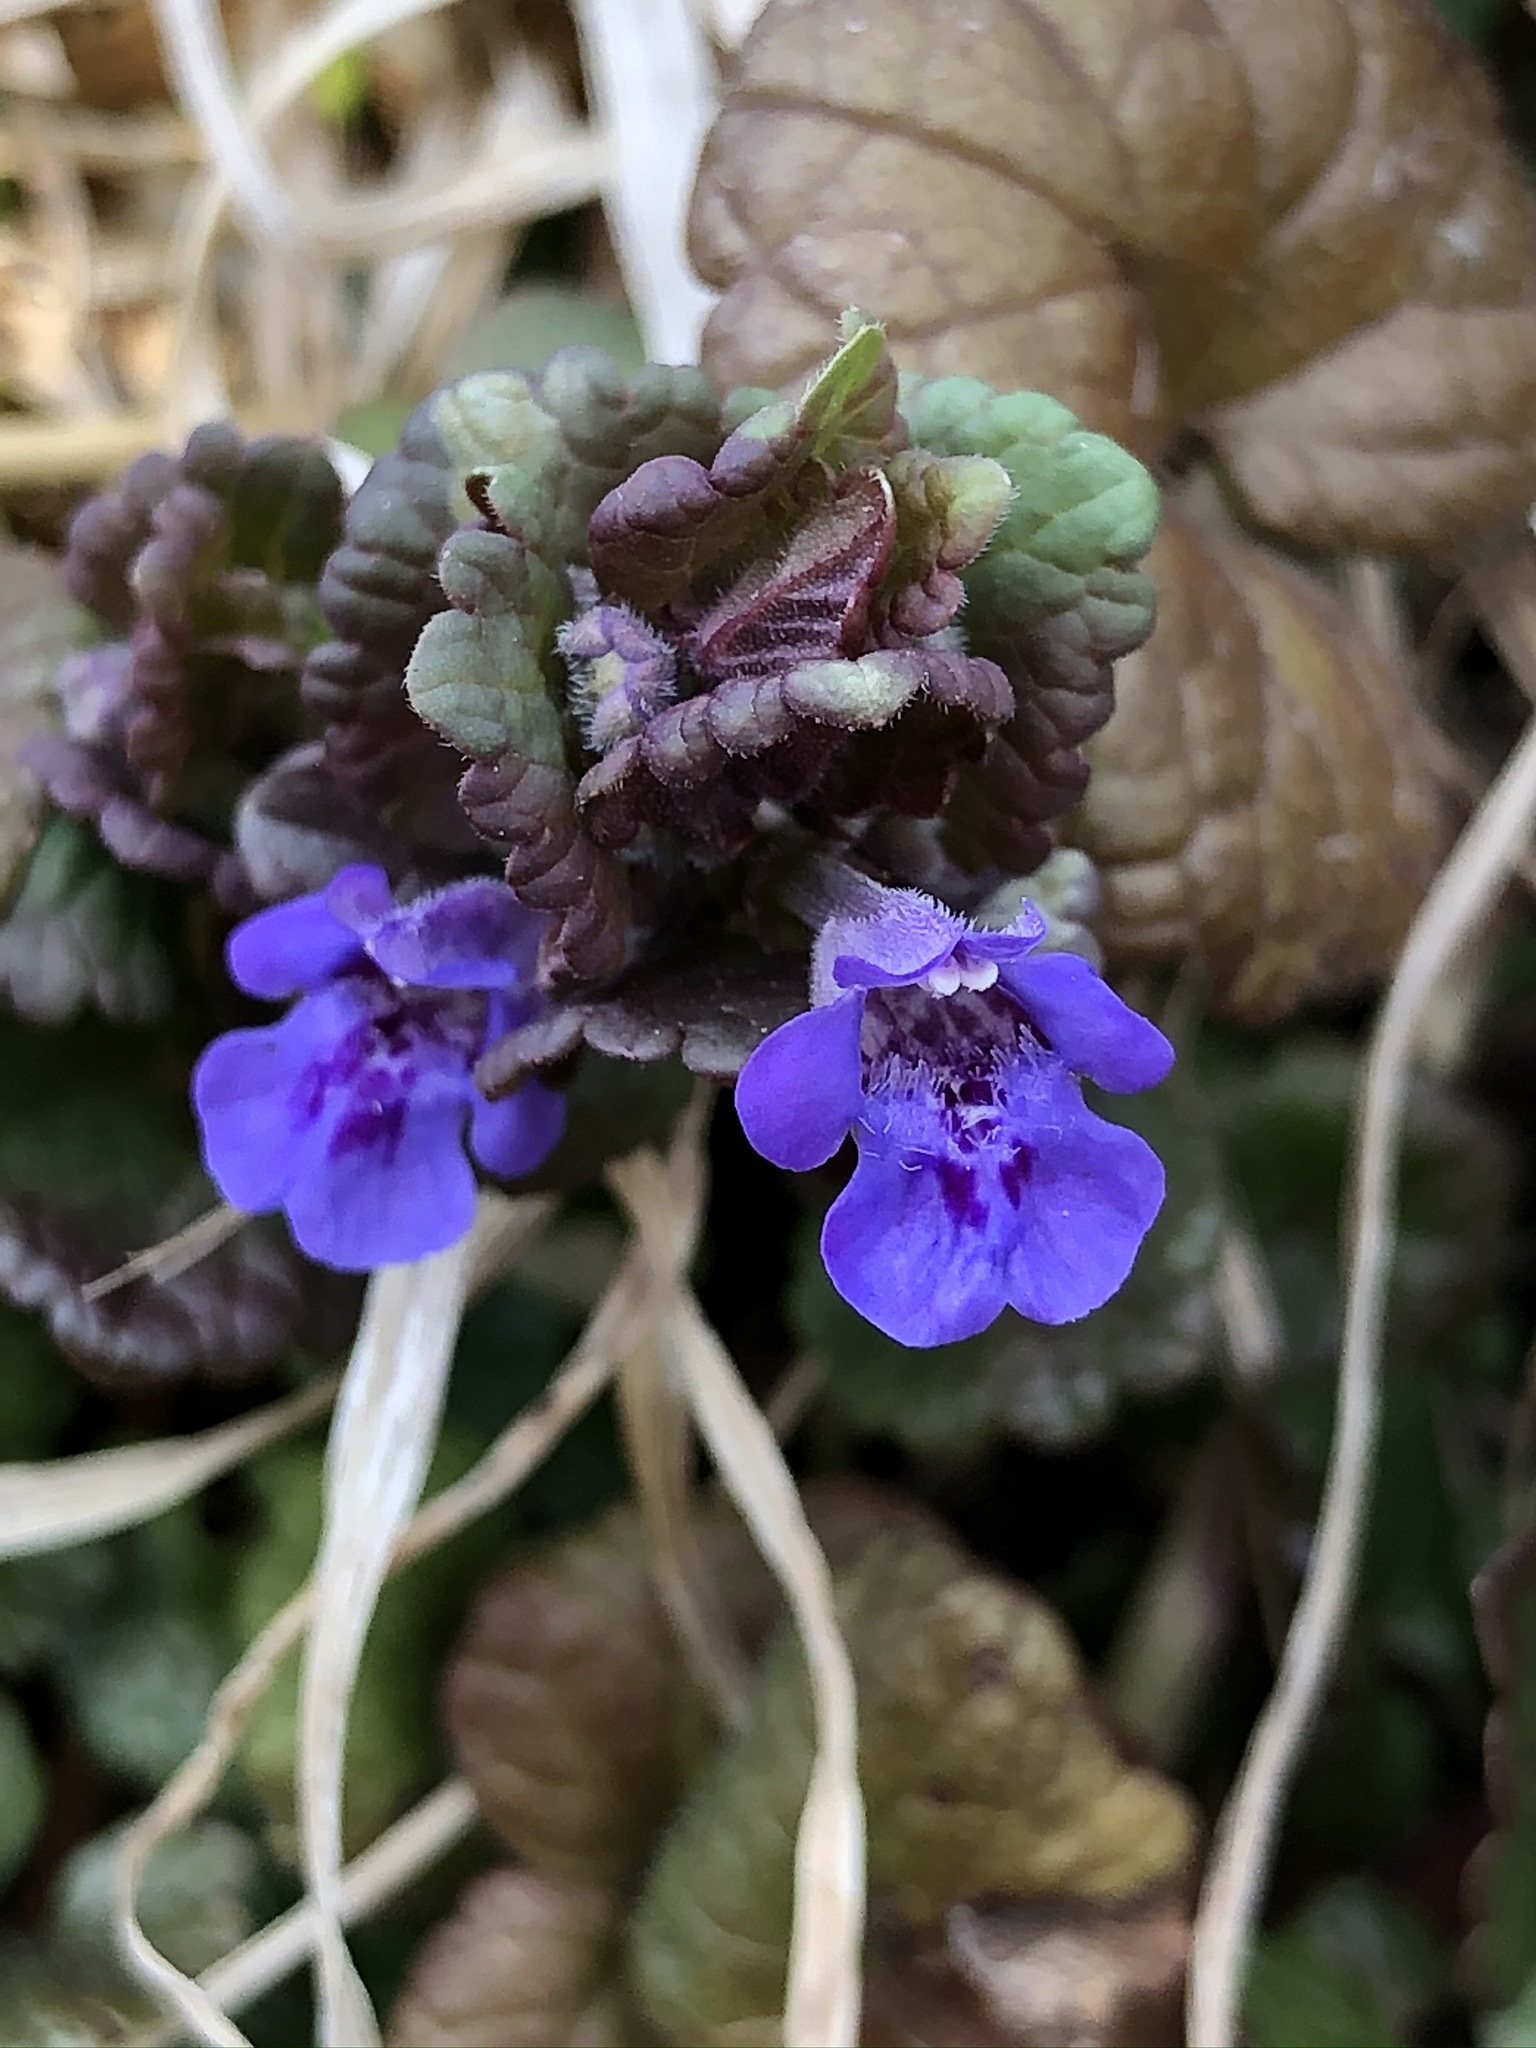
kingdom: Plantae
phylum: Tracheophyta
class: Magnoliopsida
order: Lamiales
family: Lamiaceae
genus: Glechoma
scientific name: Glechoma hederacea
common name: Ground ivy
